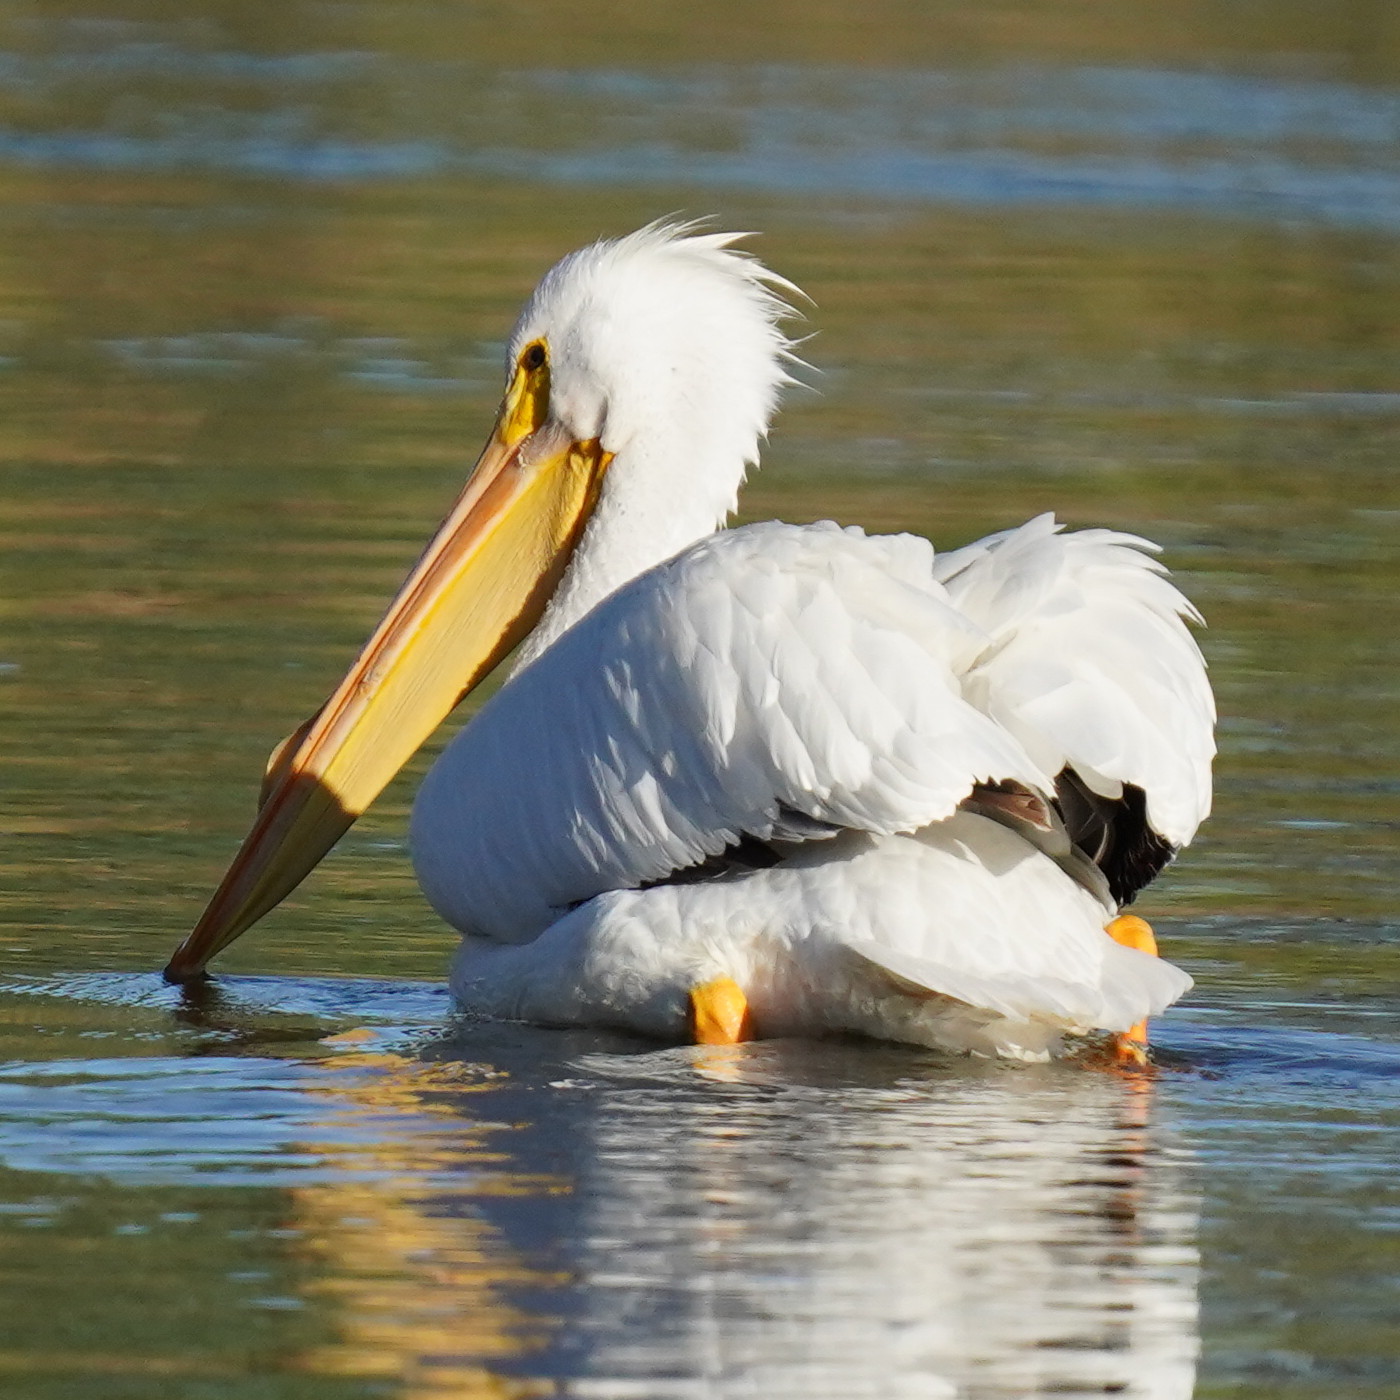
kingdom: Animalia
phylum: Chordata
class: Aves
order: Pelecaniformes
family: Pelecanidae
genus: Pelecanus
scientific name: Pelecanus erythrorhynchos
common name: American white pelican
